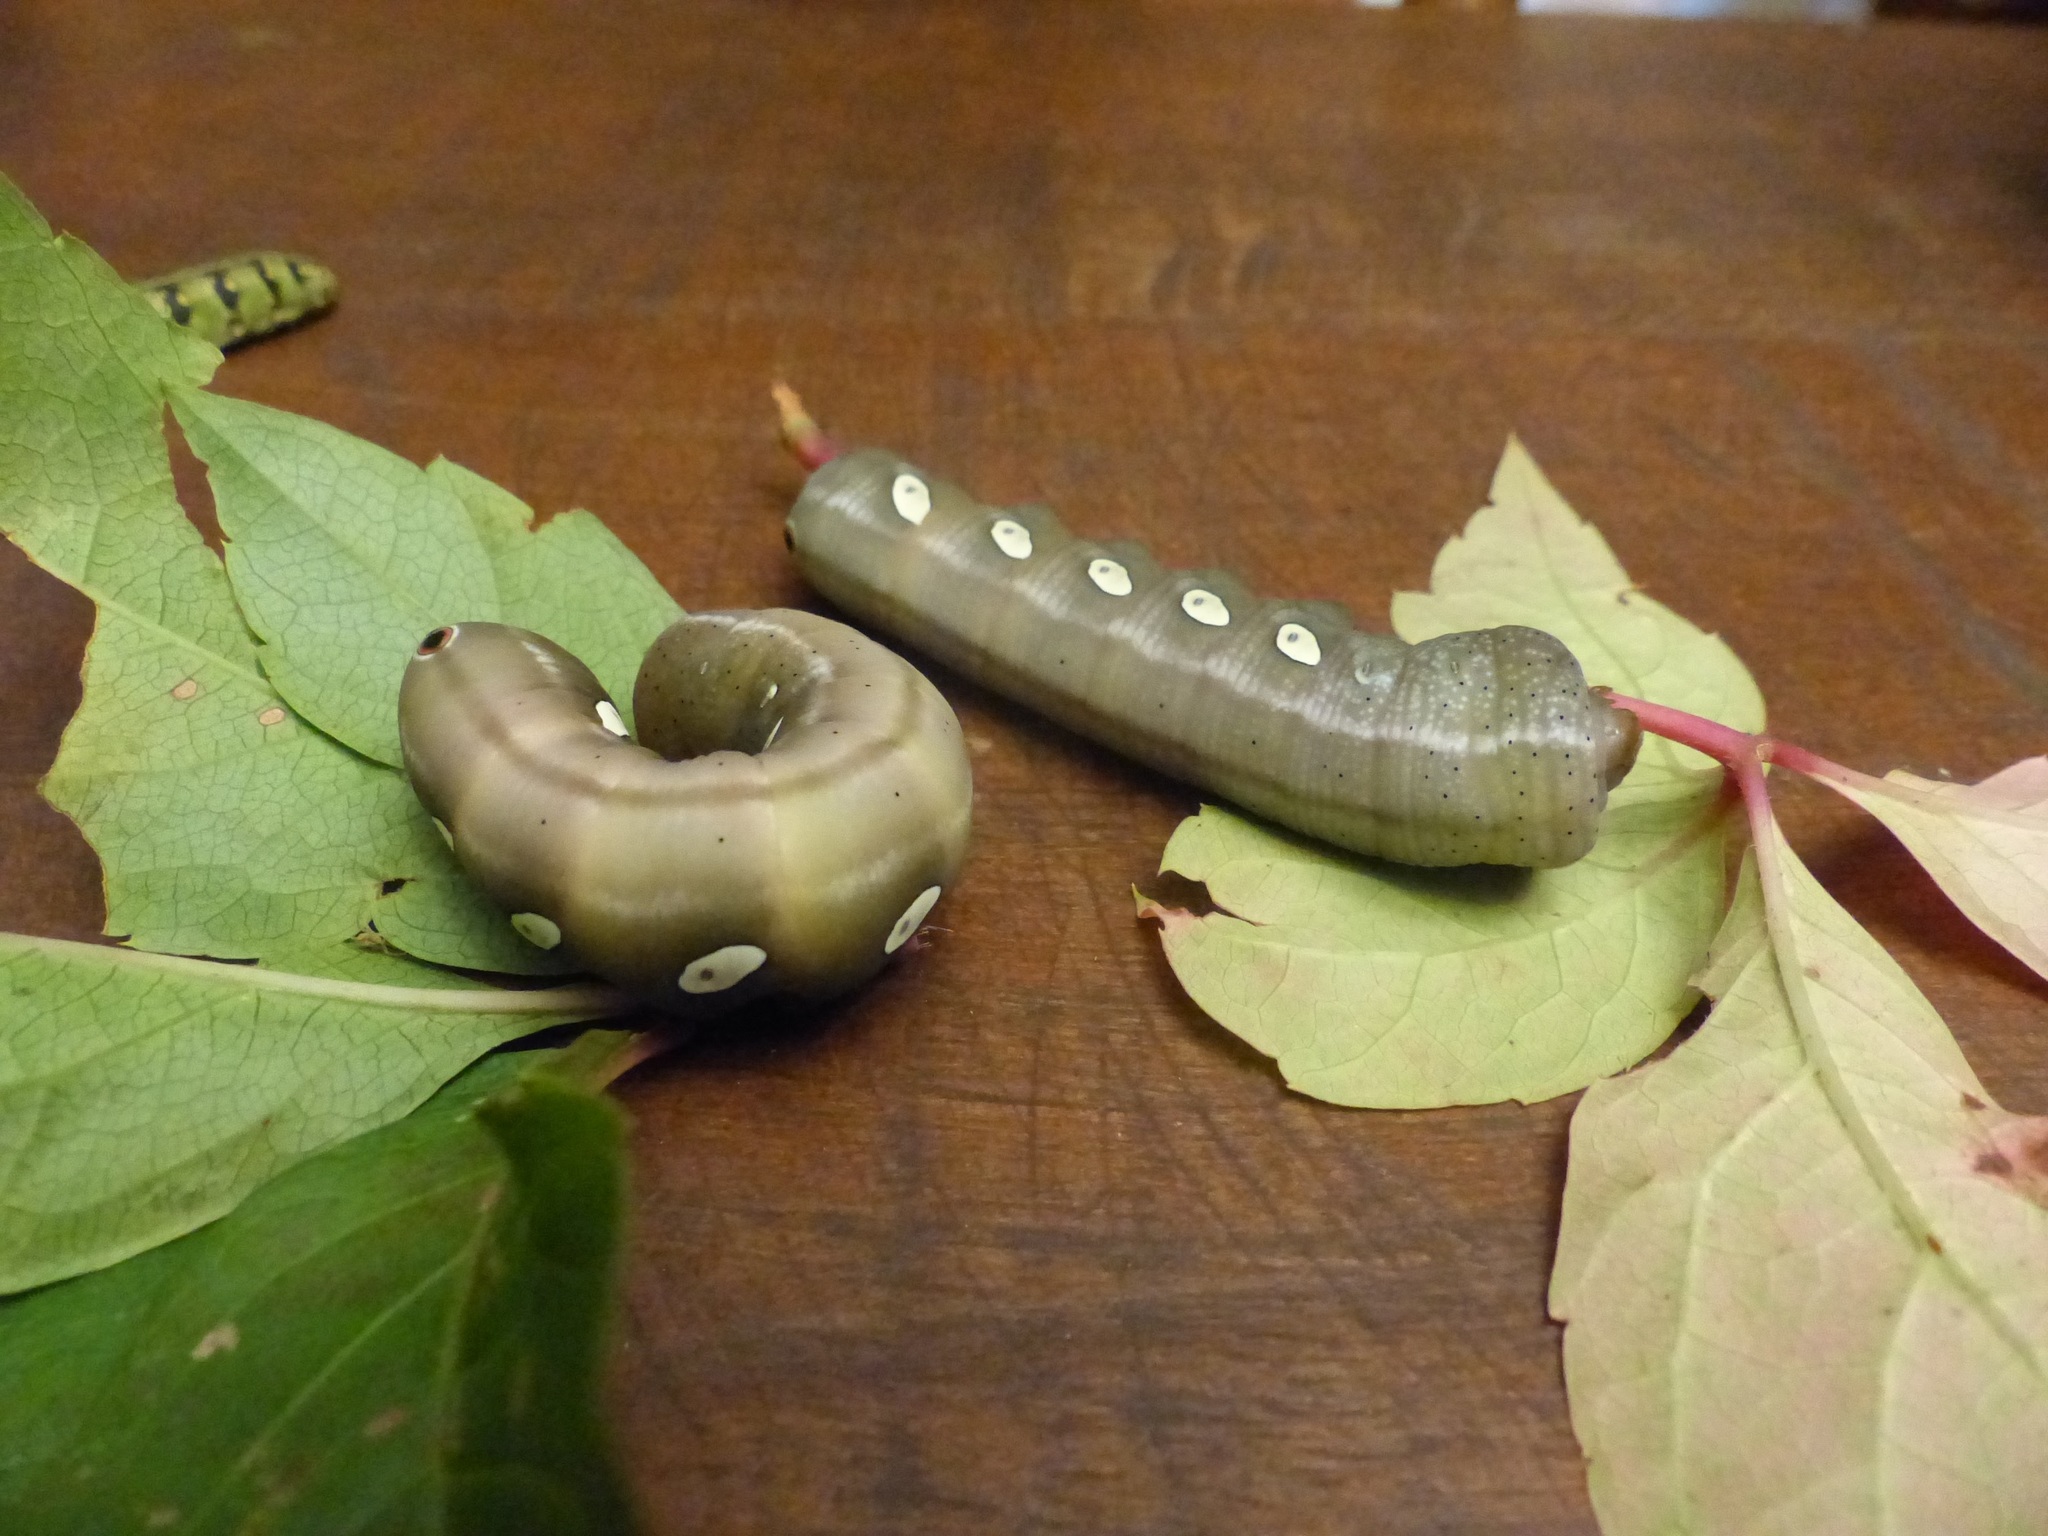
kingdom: Animalia
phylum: Arthropoda
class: Insecta
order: Lepidoptera
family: Sphingidae
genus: Eumorpha
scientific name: Eumorpha pandorus
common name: Pandora sphinx
